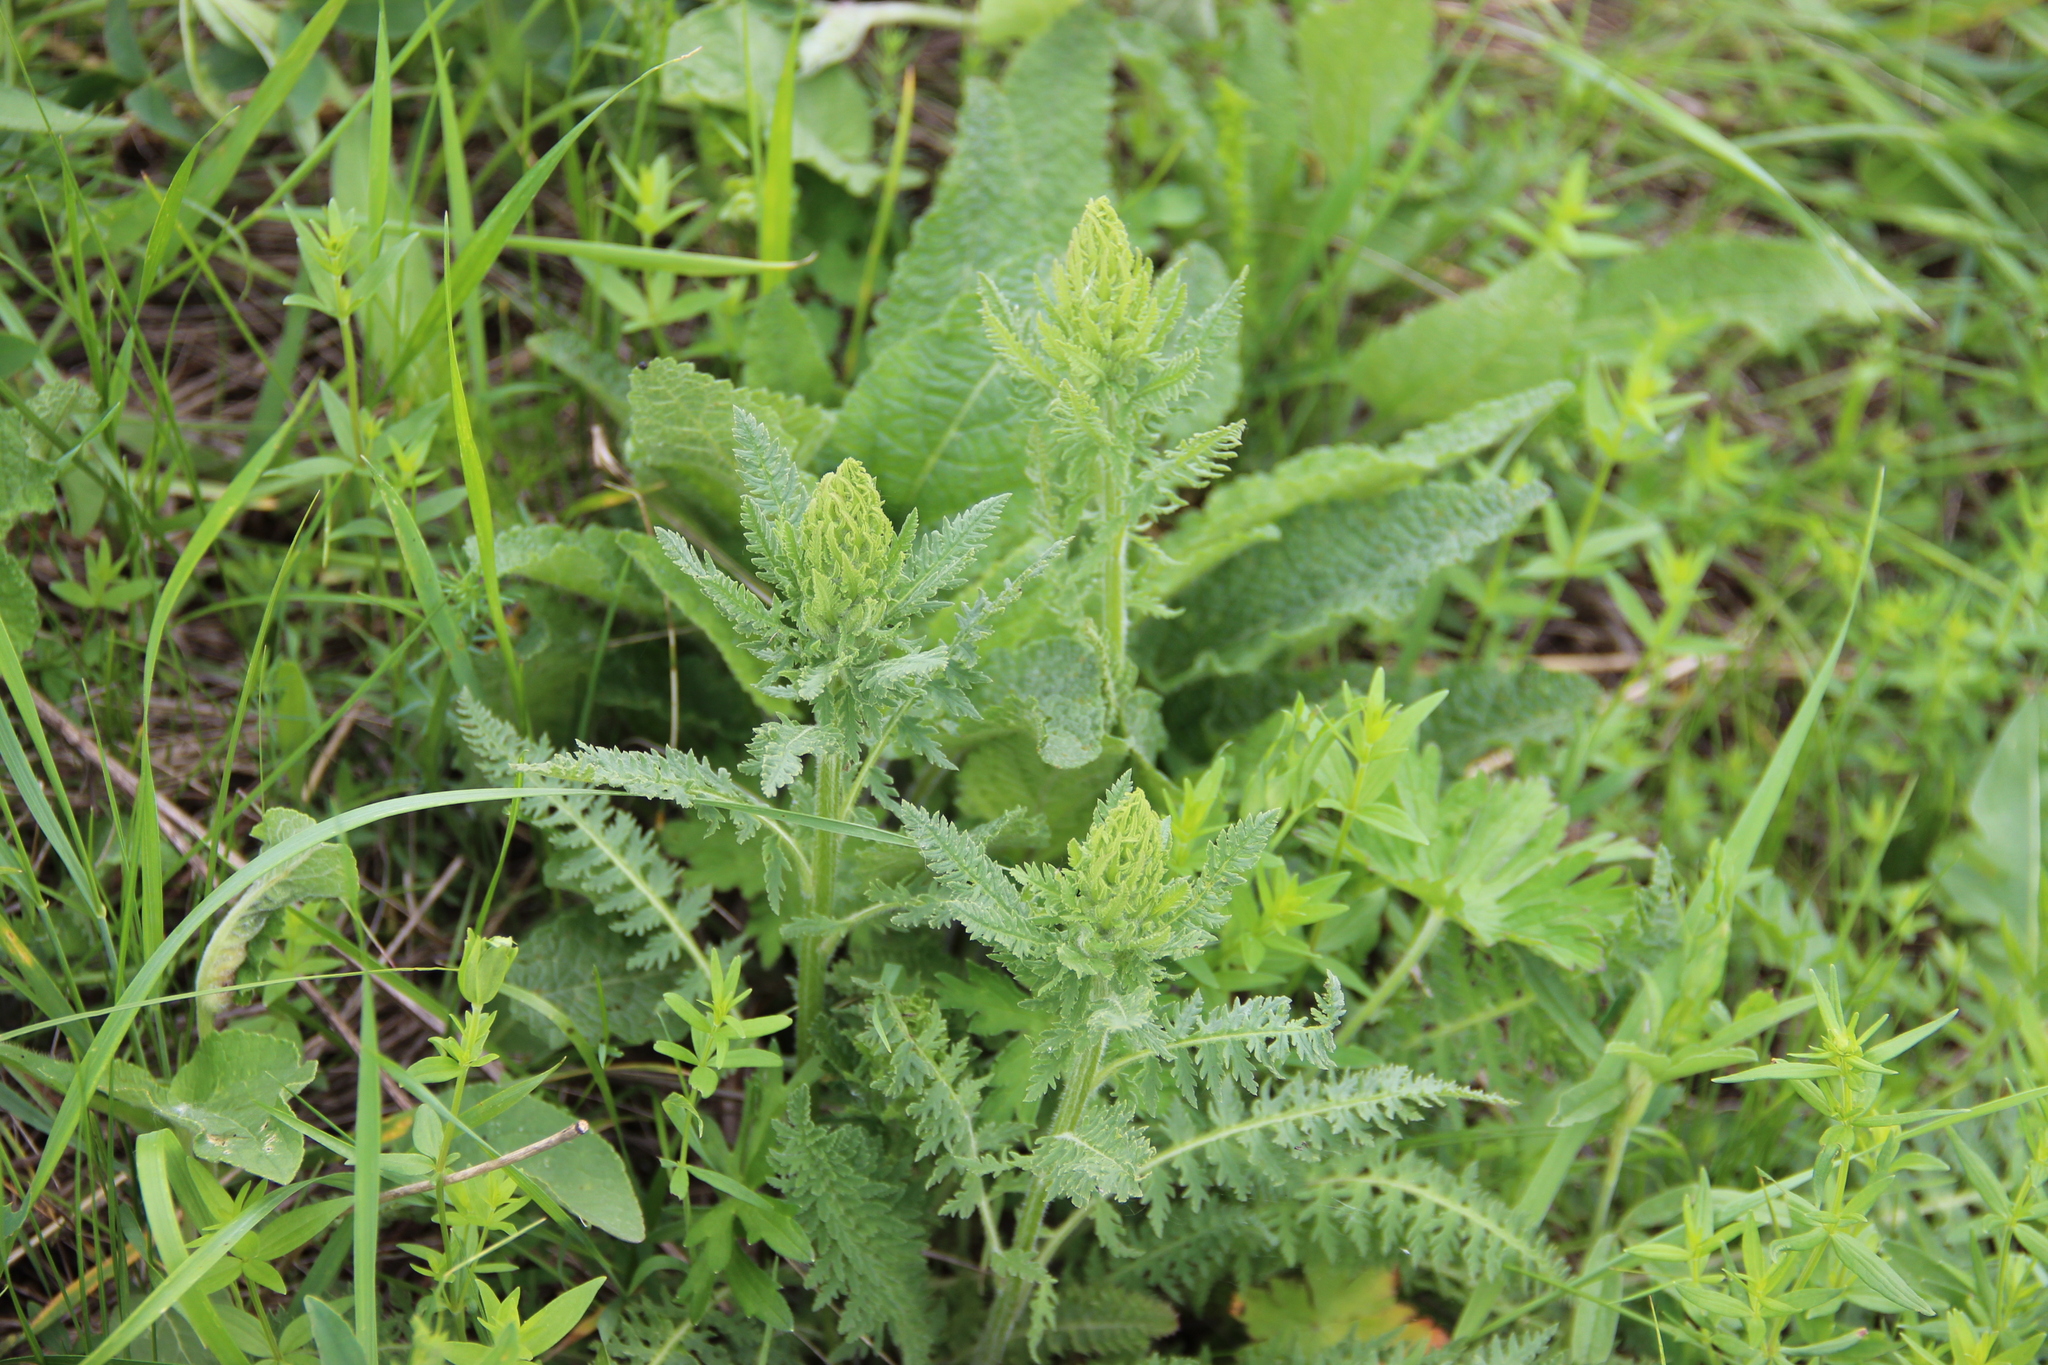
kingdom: Plantae
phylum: Tracheophyta
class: Magnoliopsida
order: Lamiales
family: Orobanchaceae
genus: Pedicularis
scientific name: Pedicularis kaufmannii
